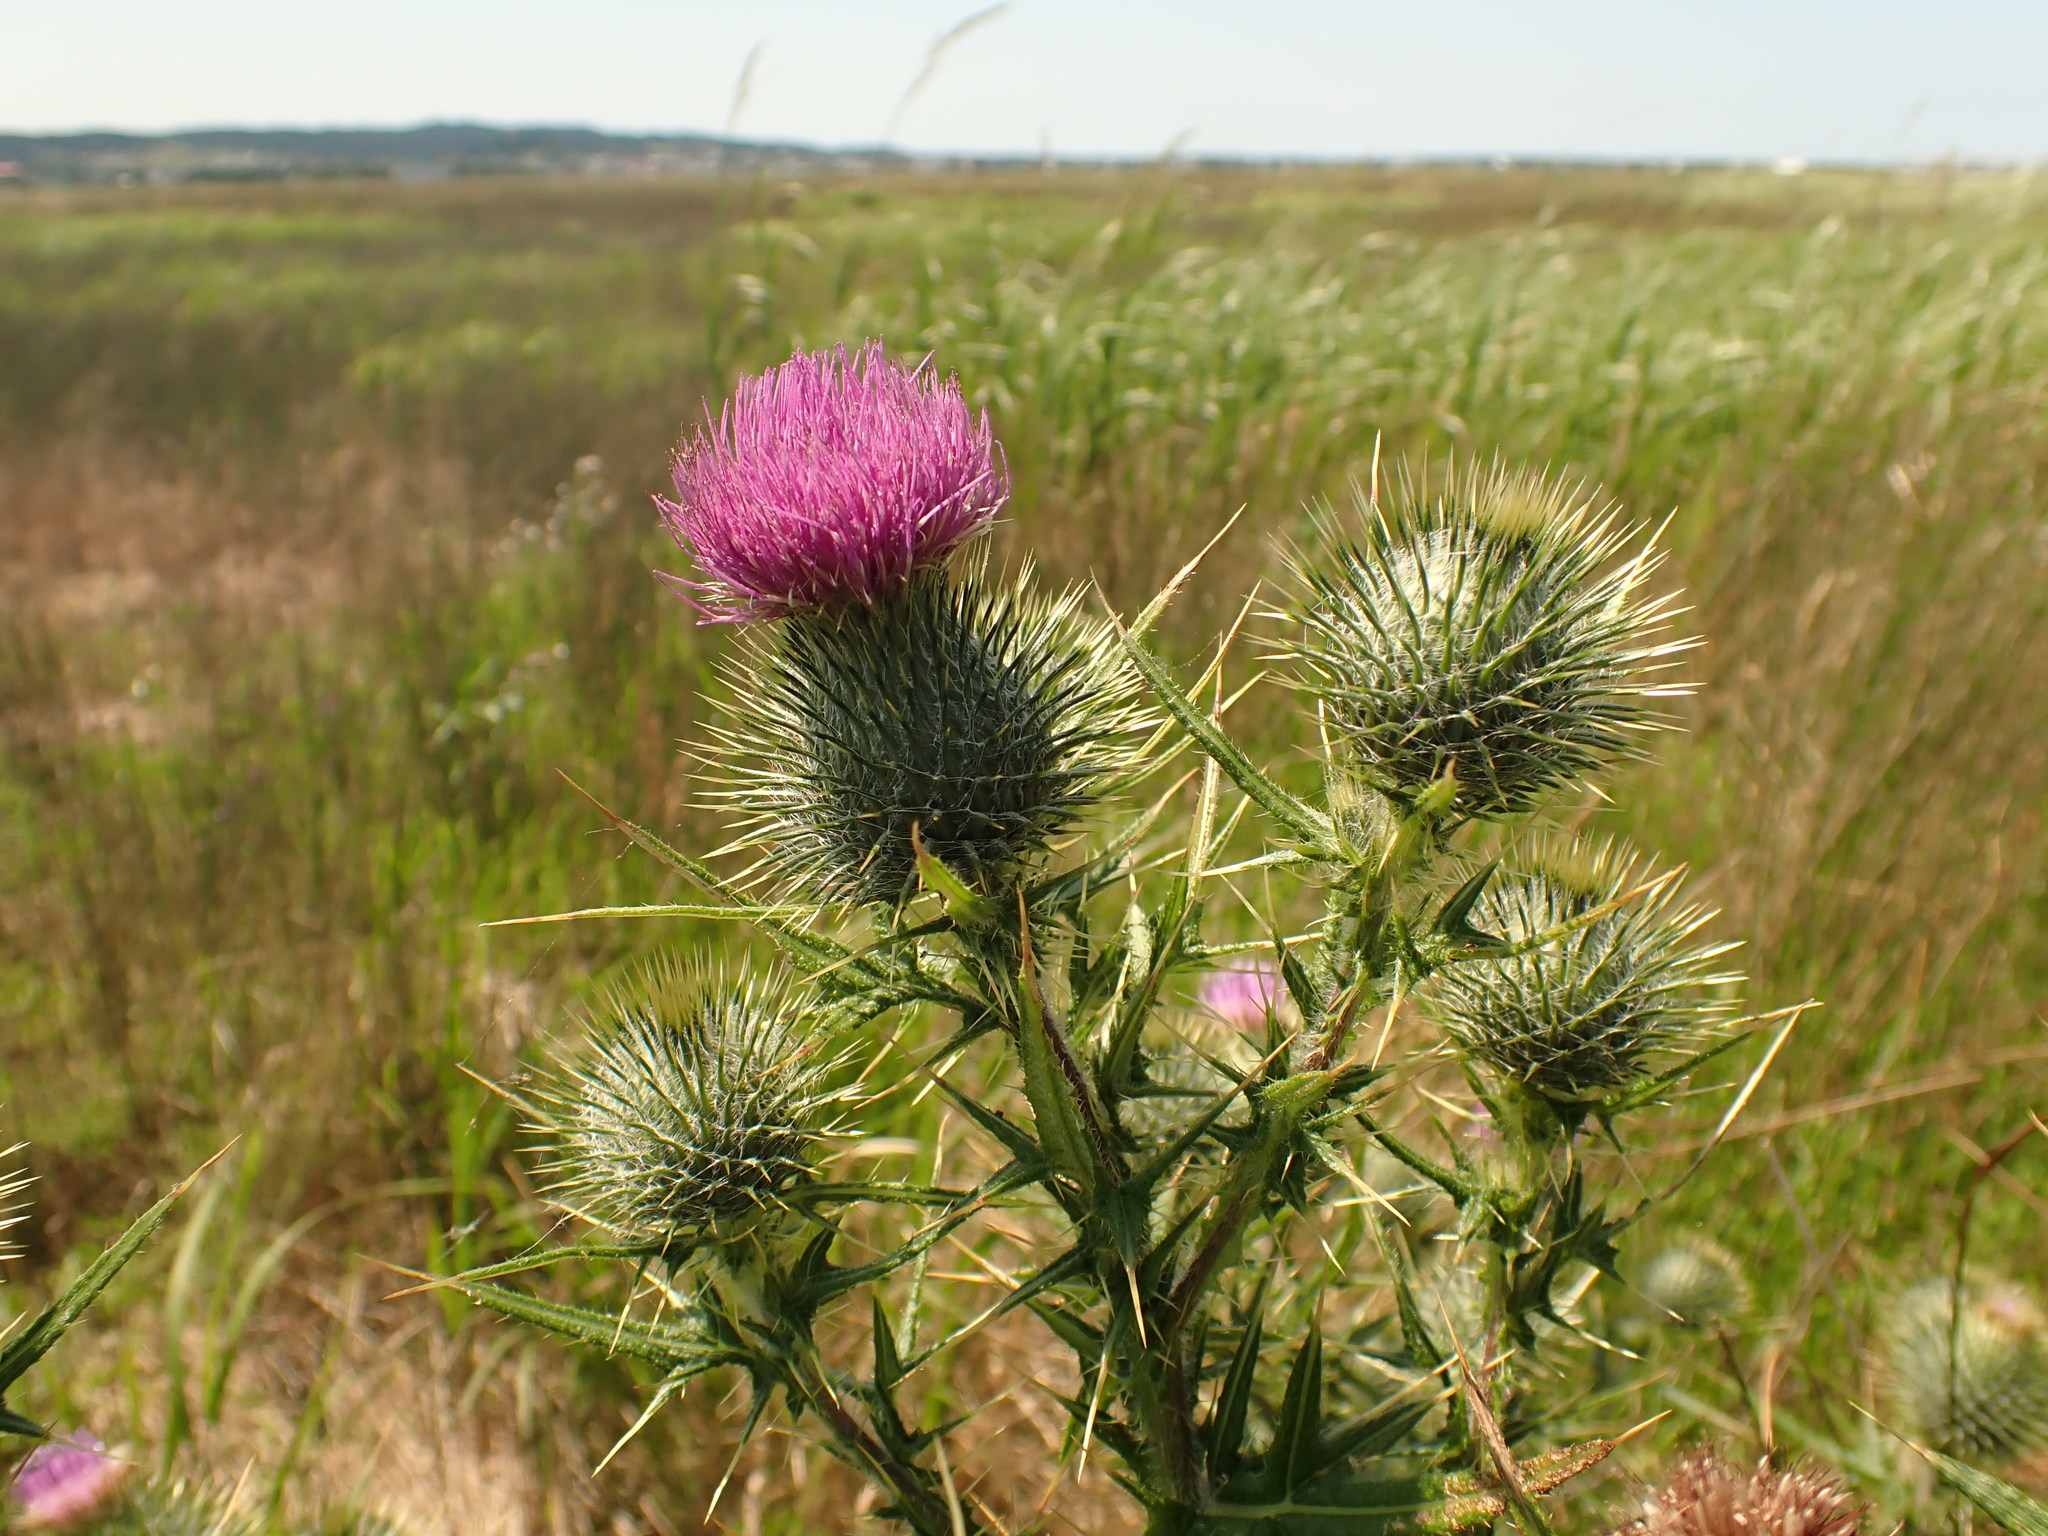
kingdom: Plantae
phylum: Tracheophyta
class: Magnoliopsida
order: Asterales
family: Asteraceae
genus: Cirsium
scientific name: Cirsium vulgare
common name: Bull thistle
